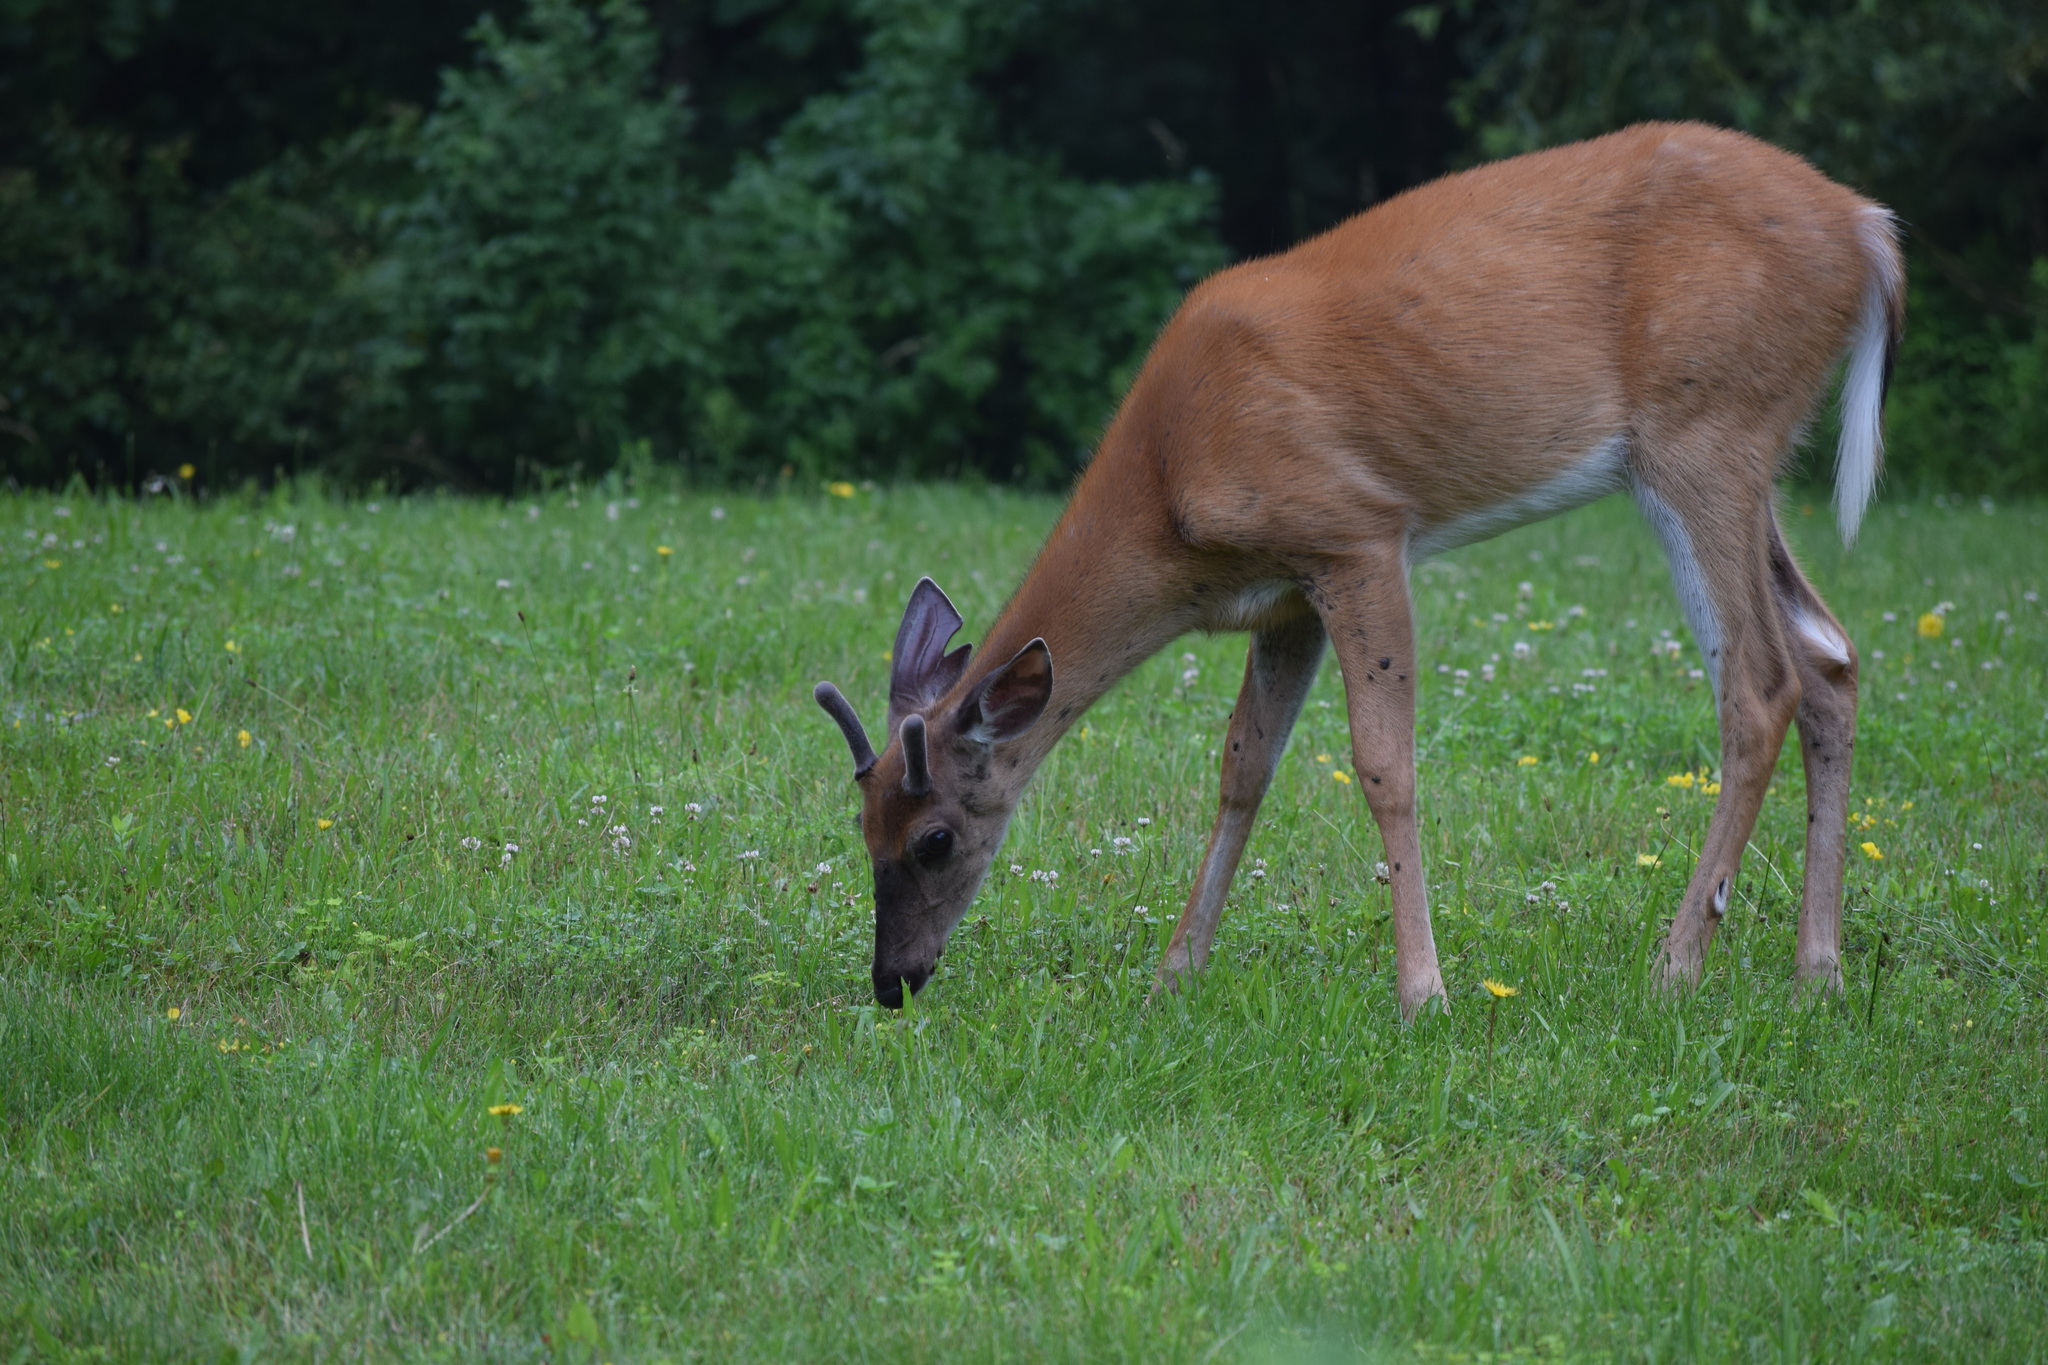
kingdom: Animalia
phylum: Chordata
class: Mammalia
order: Artiodactyla
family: Cervidae
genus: Odocoileus
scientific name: Odocoileus virginianus
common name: White-tailed deer
